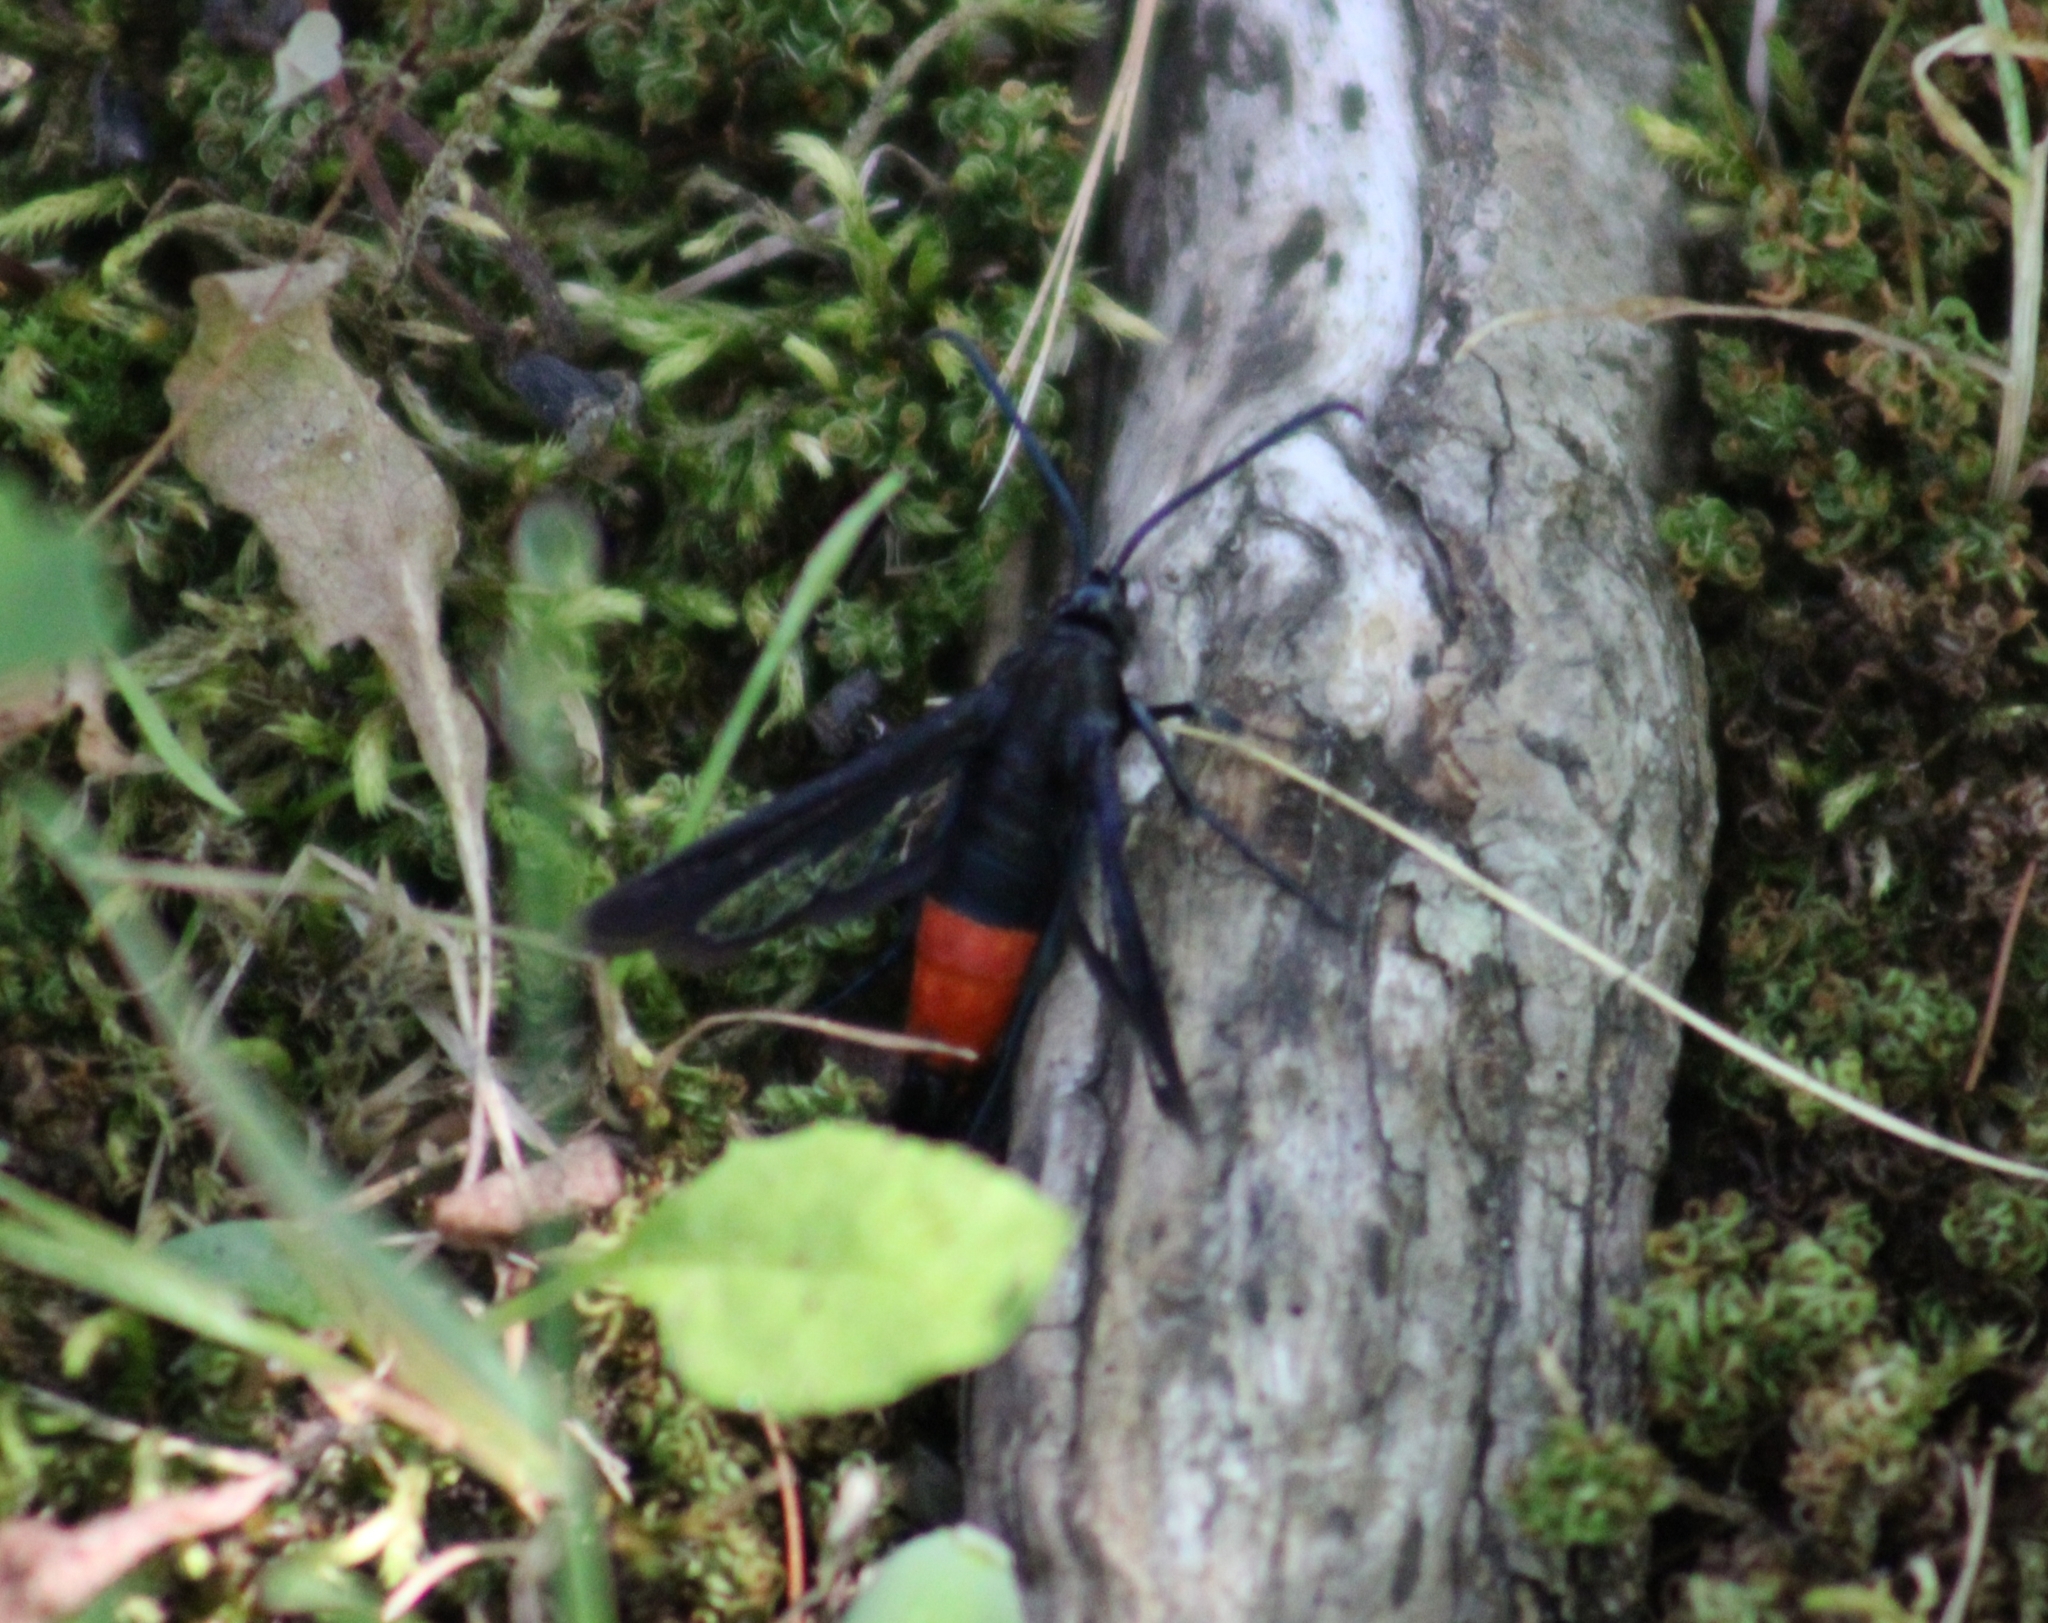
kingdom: Animalia
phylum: Arthropoda
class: Insecta
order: Lepidoptera
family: Sesiidae
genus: Synanthedon
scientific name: Synanthedon rubrofascia
